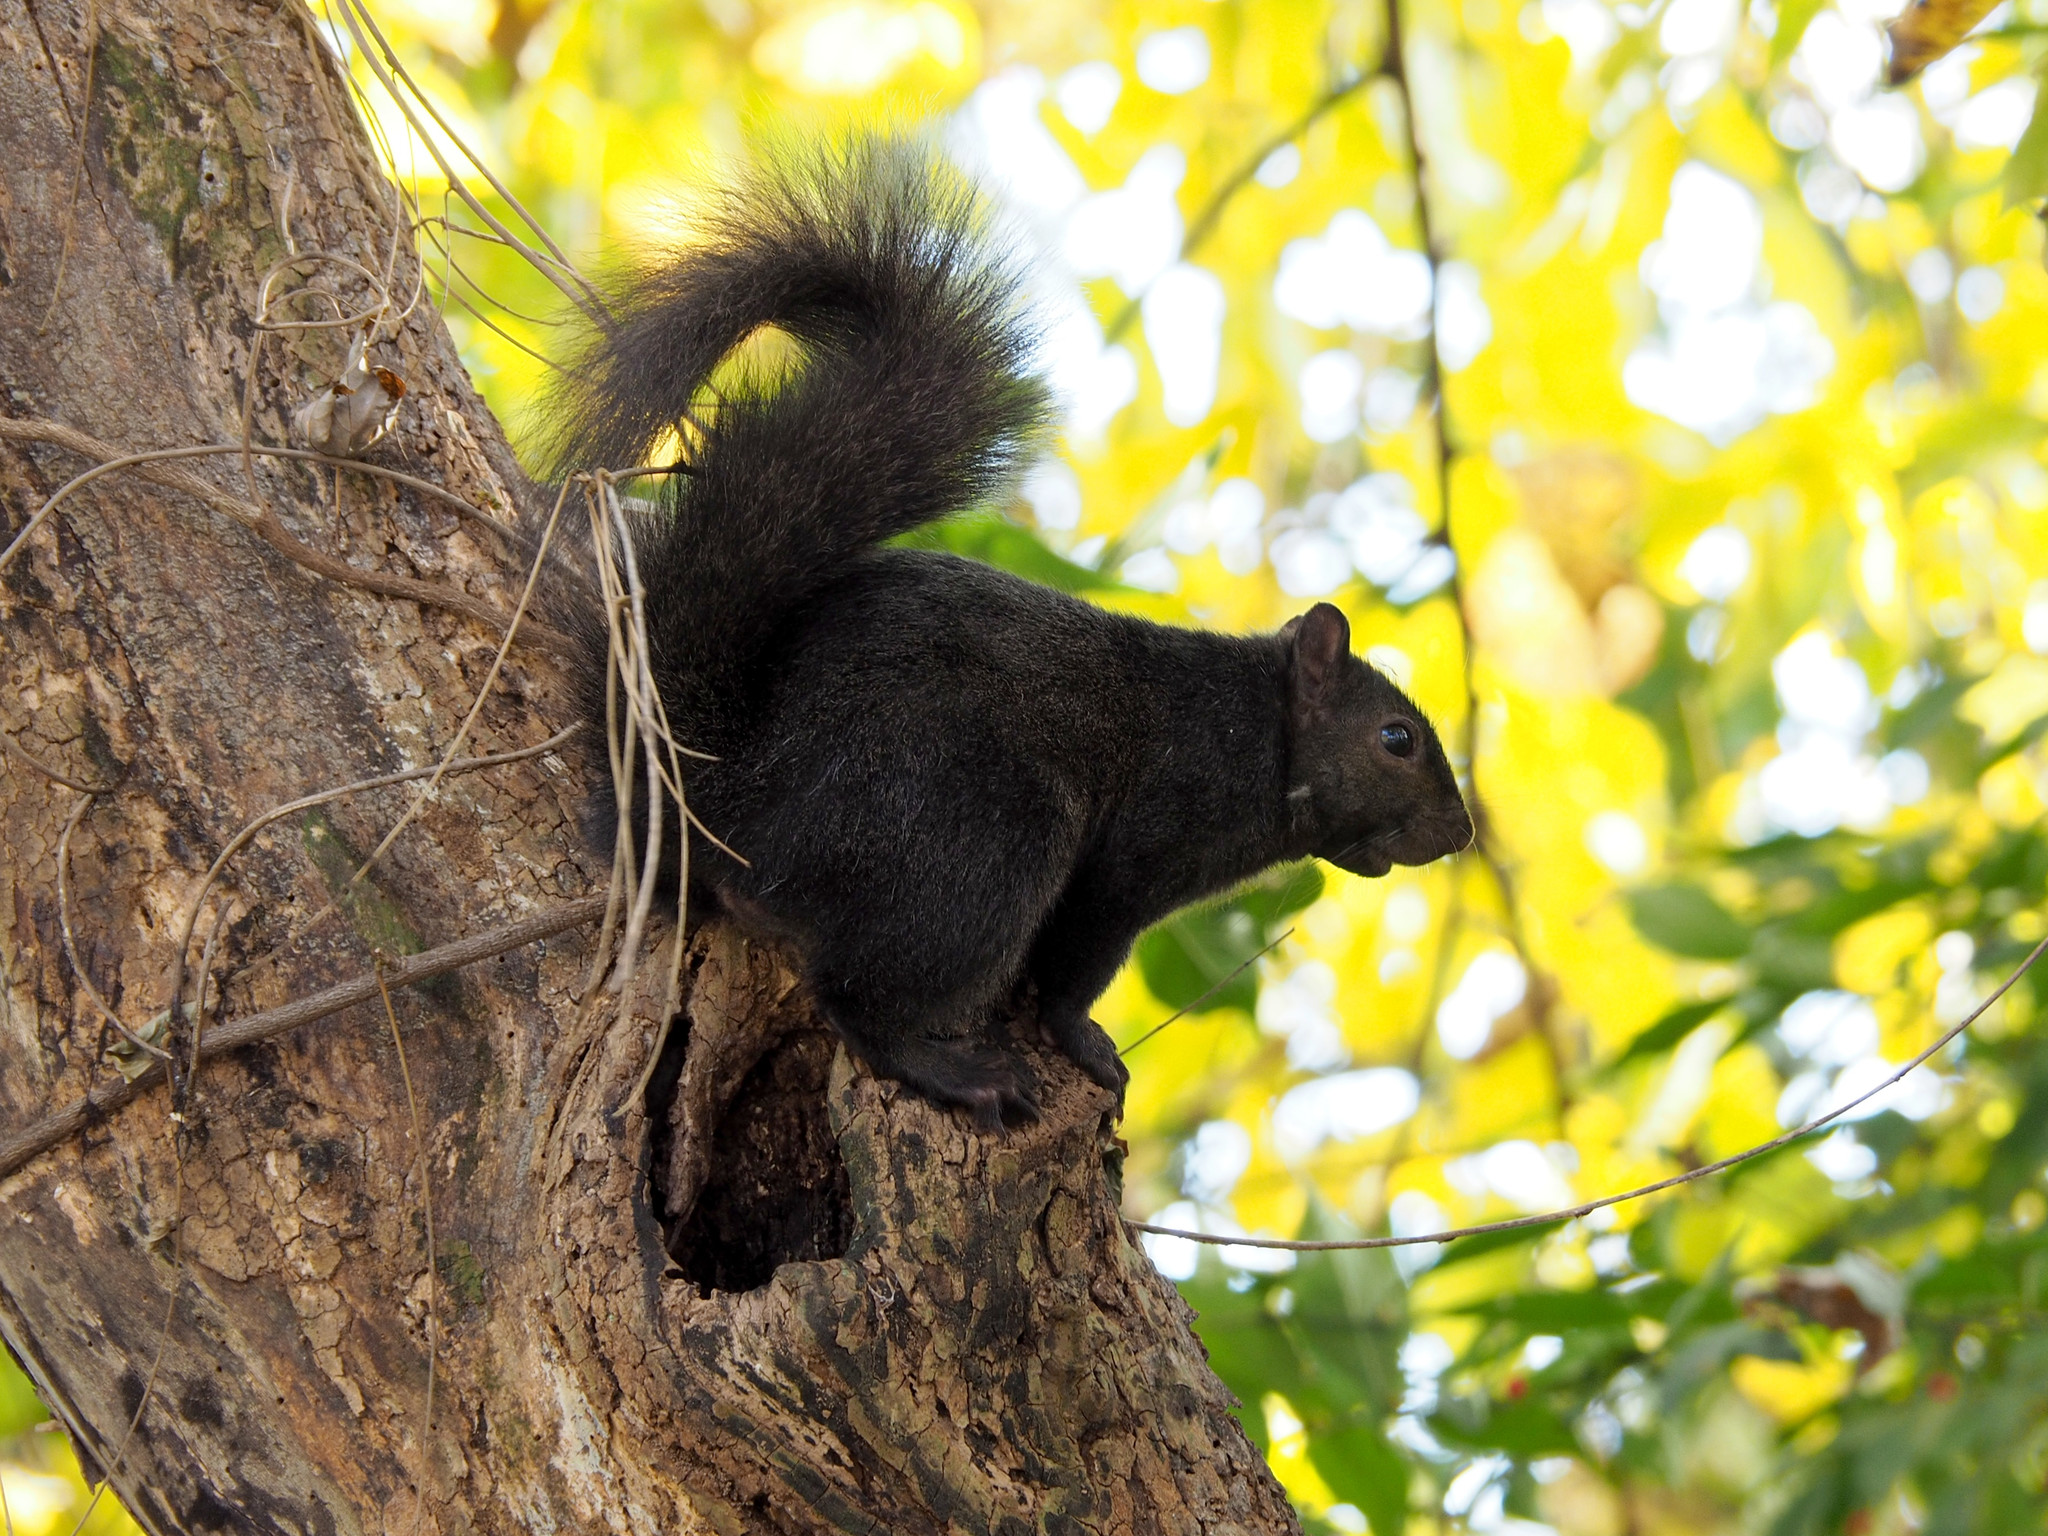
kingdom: Animalia
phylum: Chordata
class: Mammalia
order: Rodentia
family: Sciuridae
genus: Sciurus
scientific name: Sciurus carolinensis
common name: Eastern gray squirrel
